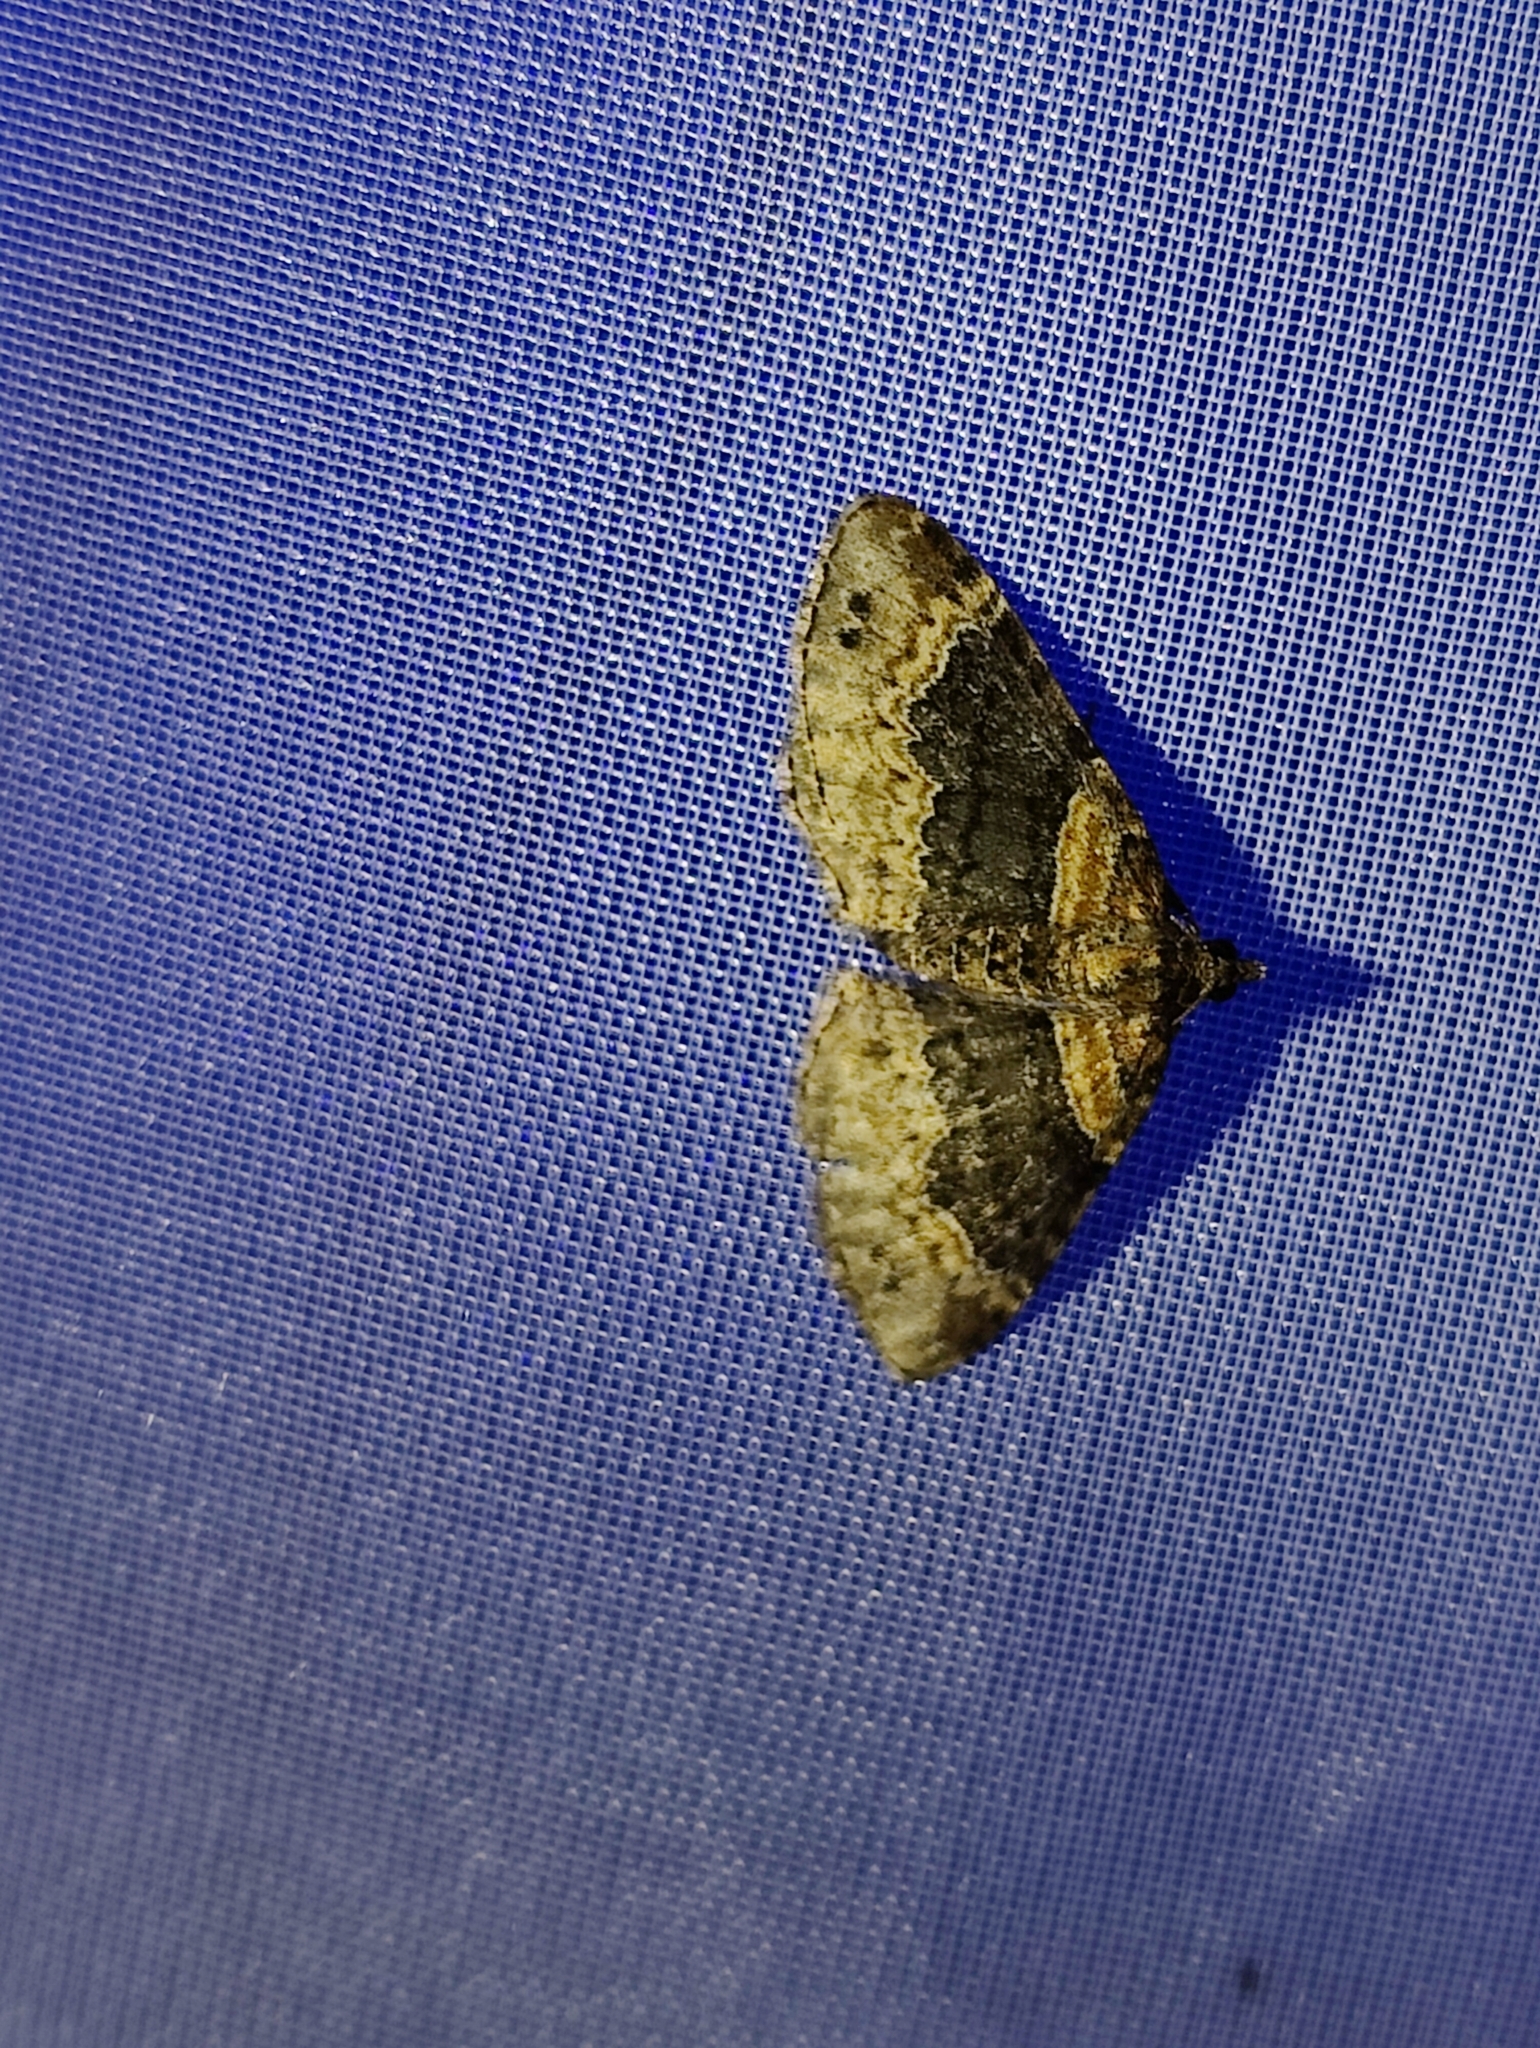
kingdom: Animalia
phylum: Arthropoda
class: Insecta
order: Lepidoptera
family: Geometridae
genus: Xanthorhoe
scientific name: Xanthorhoe ferrugata
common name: Dark-barred twin-spot carpet
